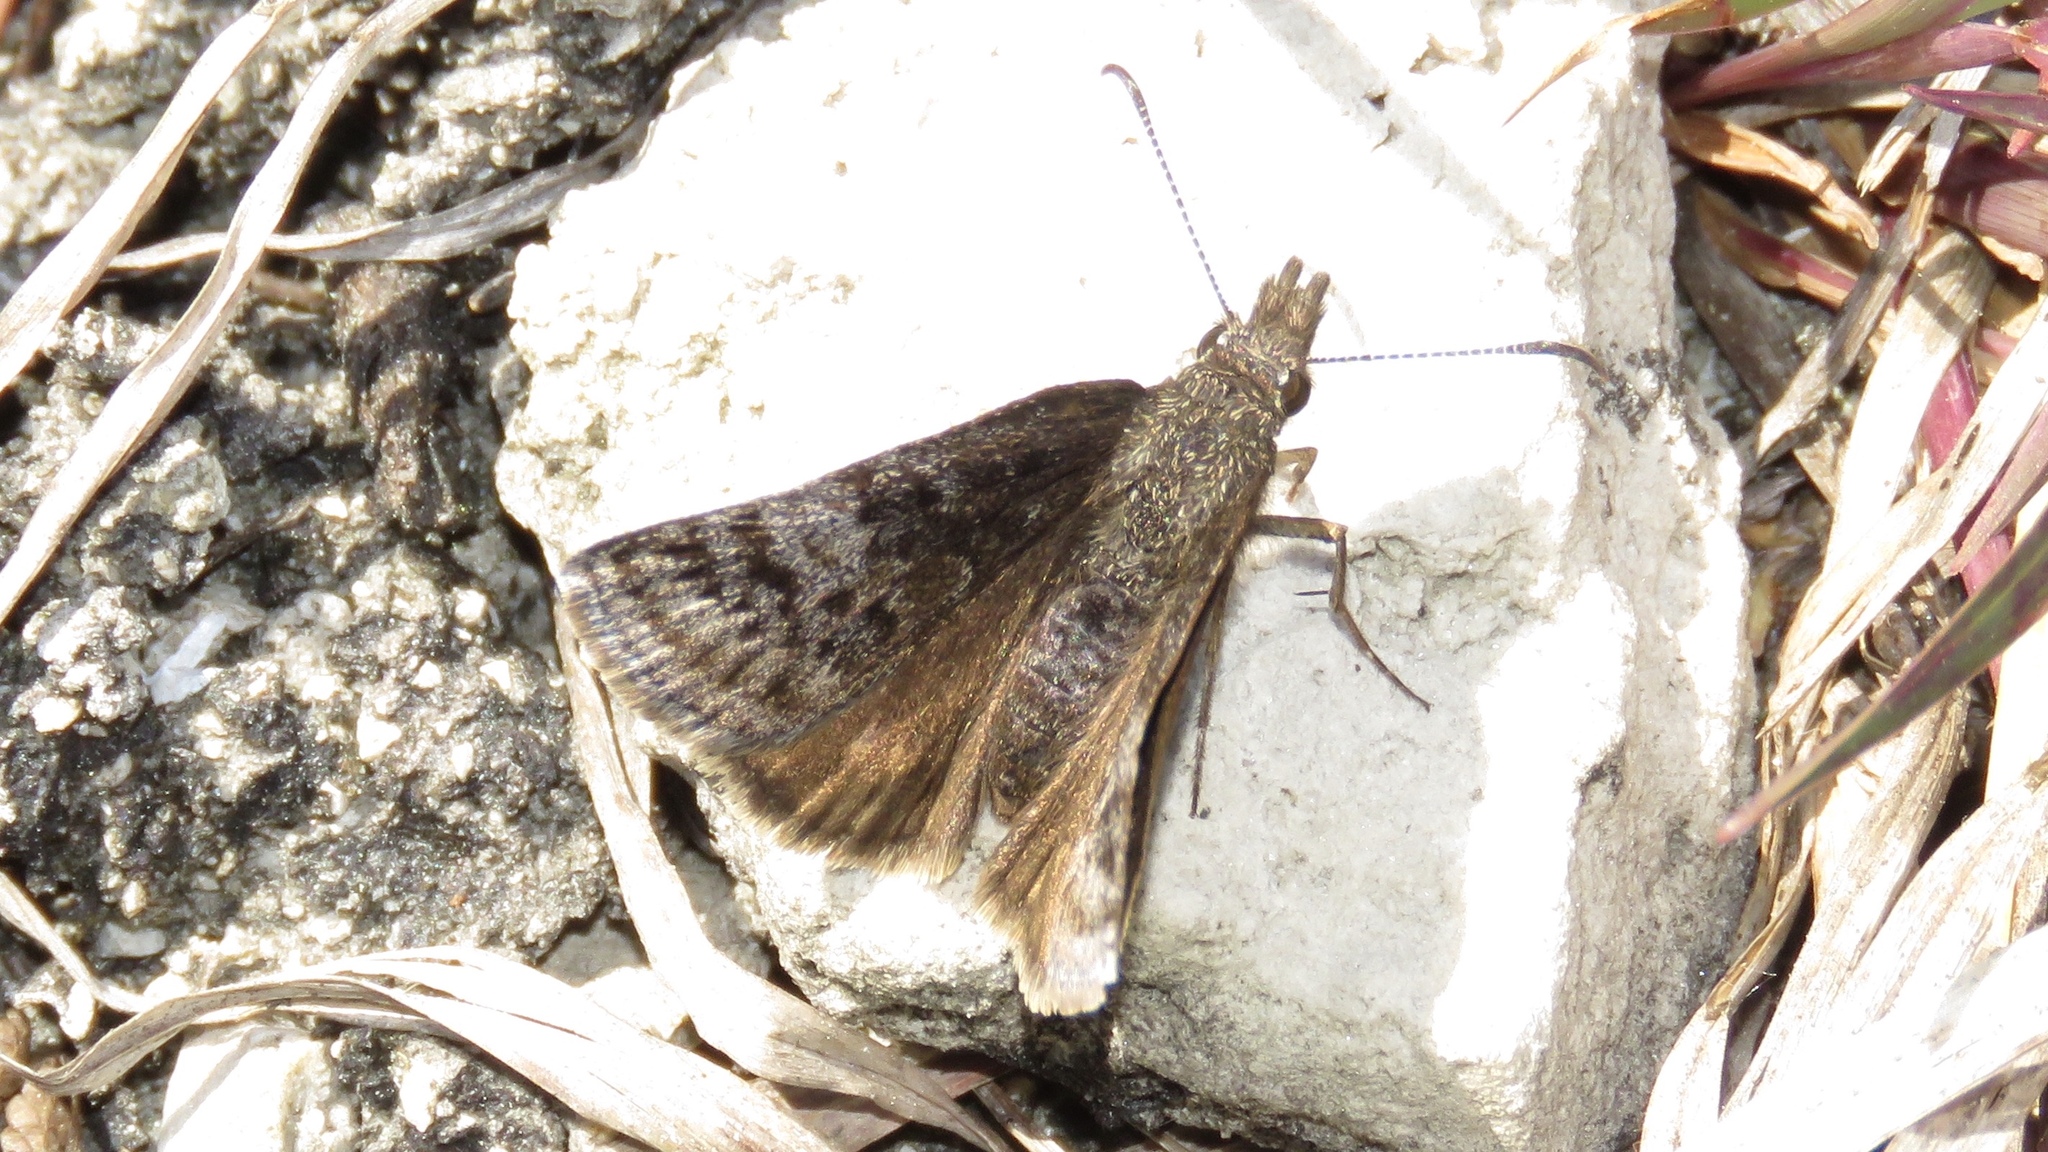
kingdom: Animalia
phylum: Arthropoda
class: Insecta
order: Lepidoptera
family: Hesperiidae
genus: Erynnis
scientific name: Erynnis icelus
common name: Dreamy duskywing
